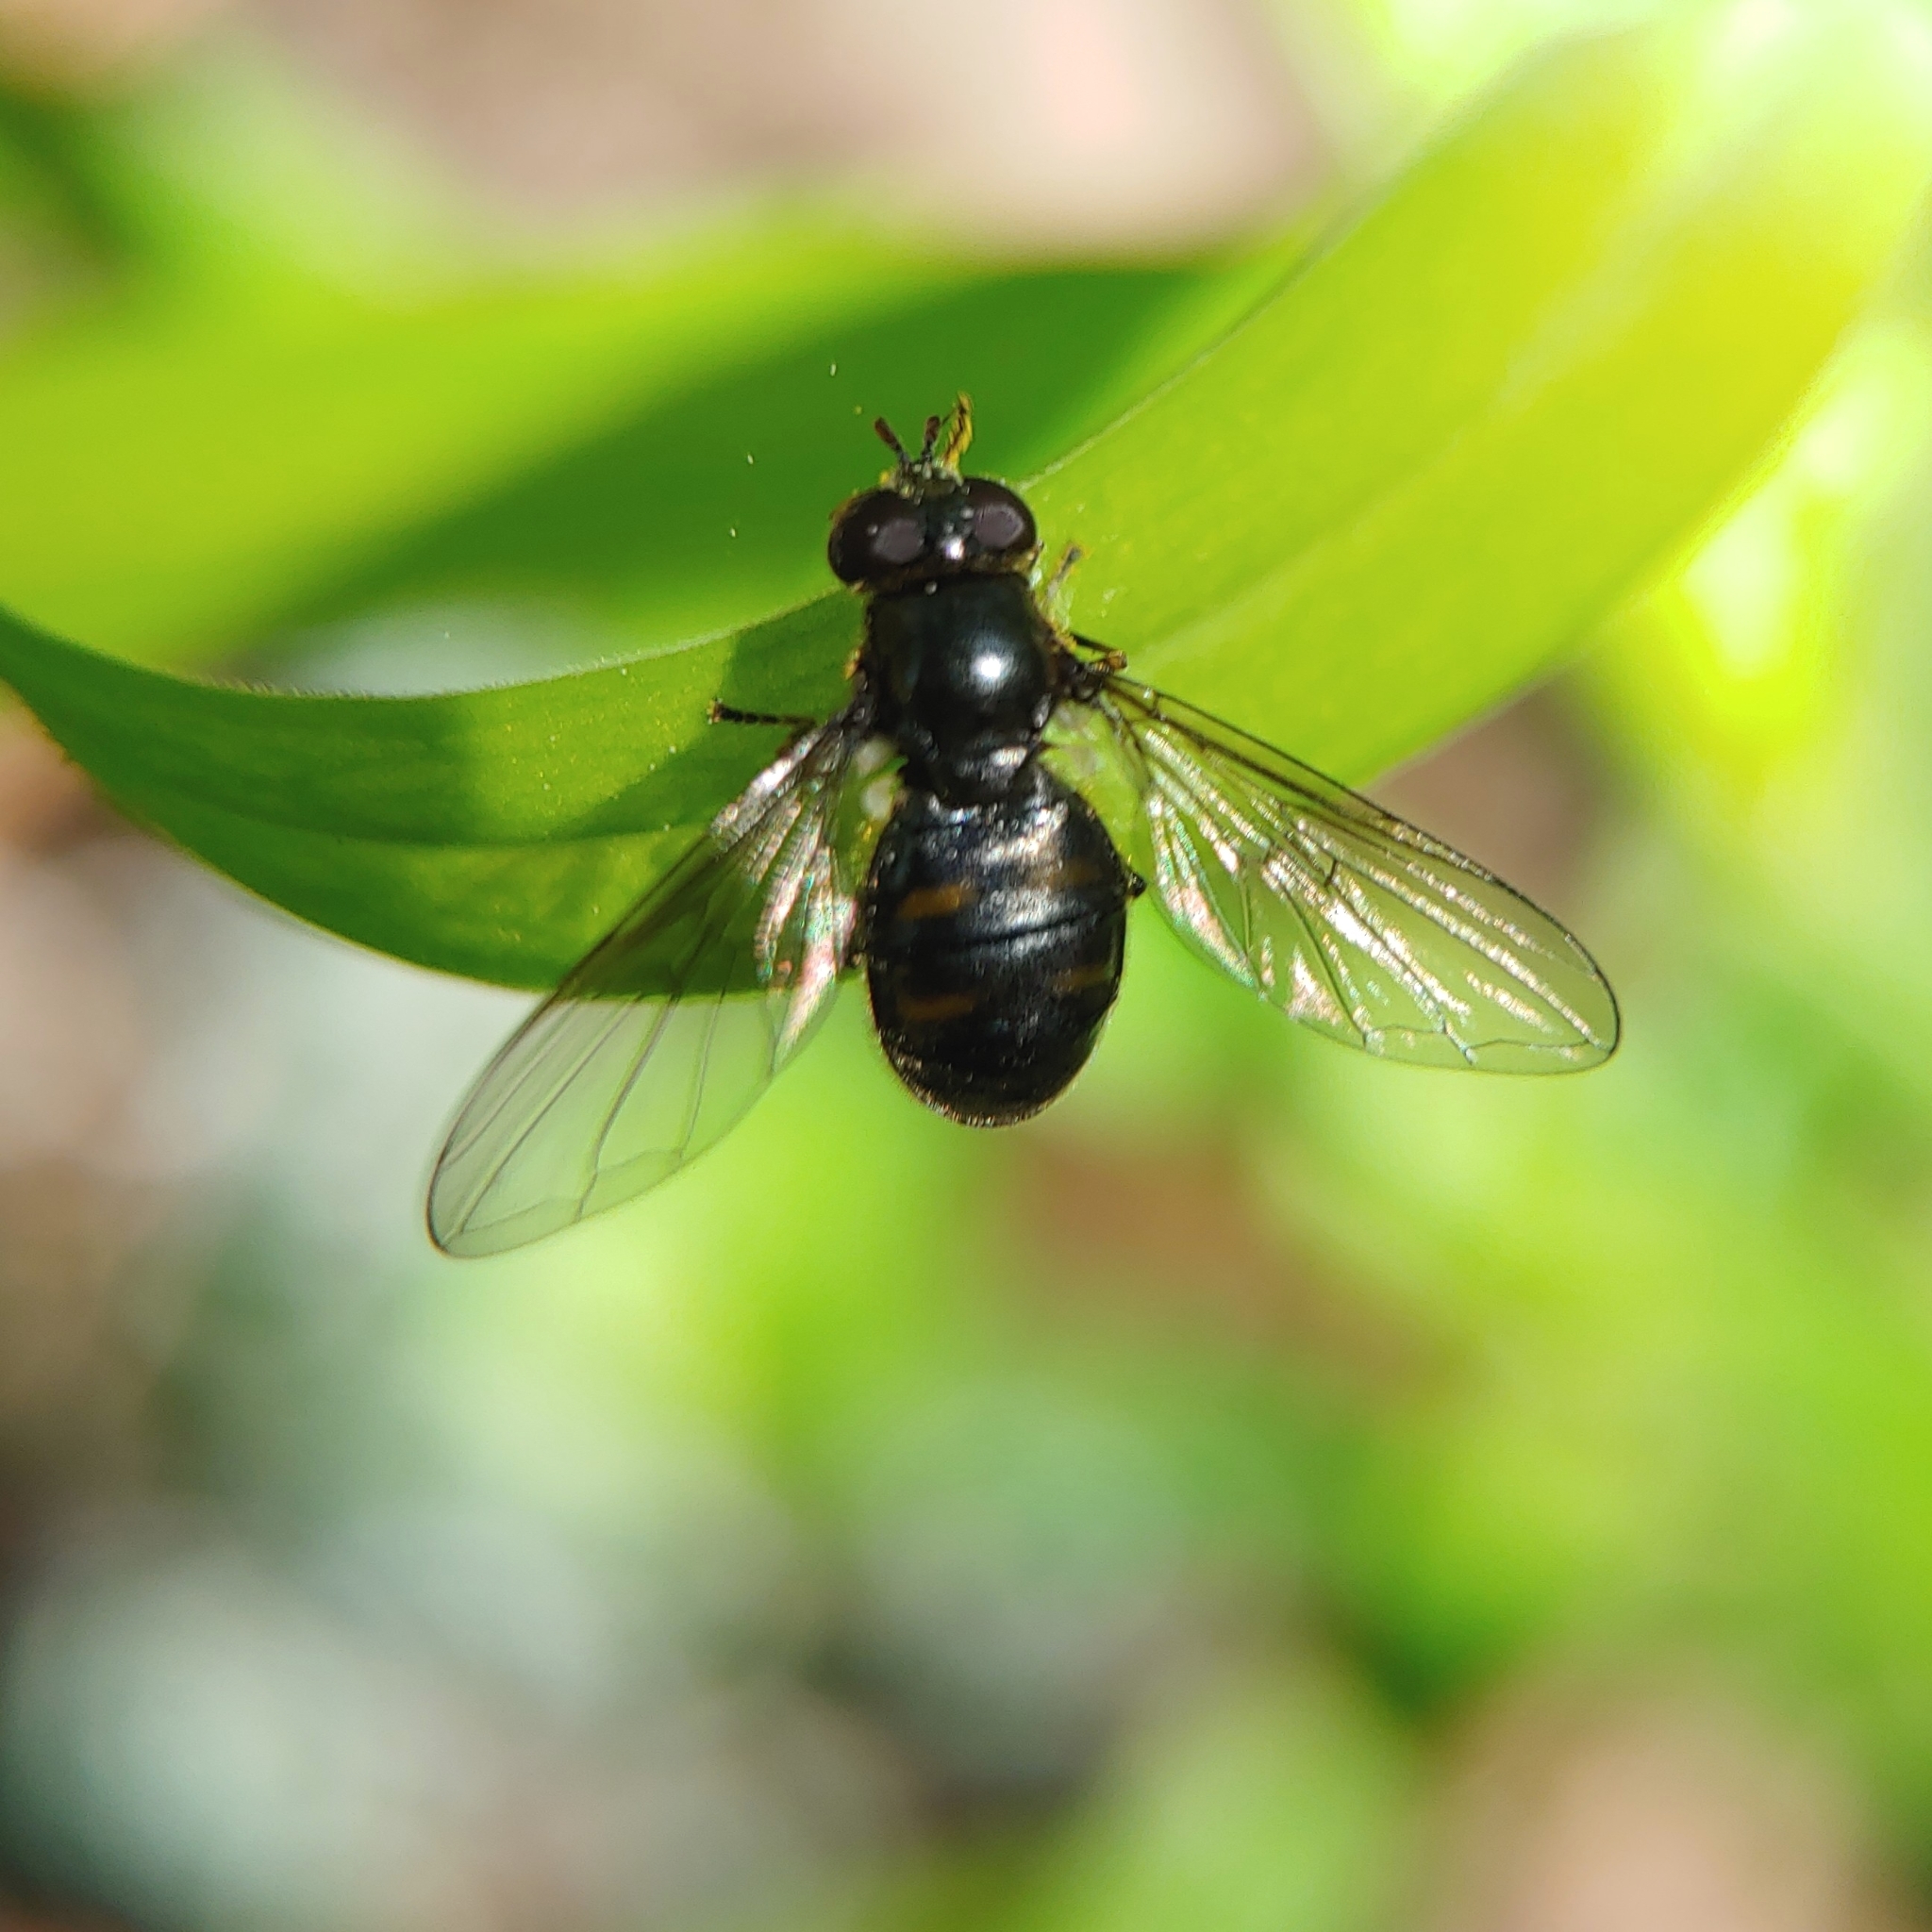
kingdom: Animalia
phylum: Arthropoda
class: Insecta
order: Diptera
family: Syrphidae
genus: Pipiza
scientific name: Pipiza quadrimaculata
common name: Four-spotted pipiza
